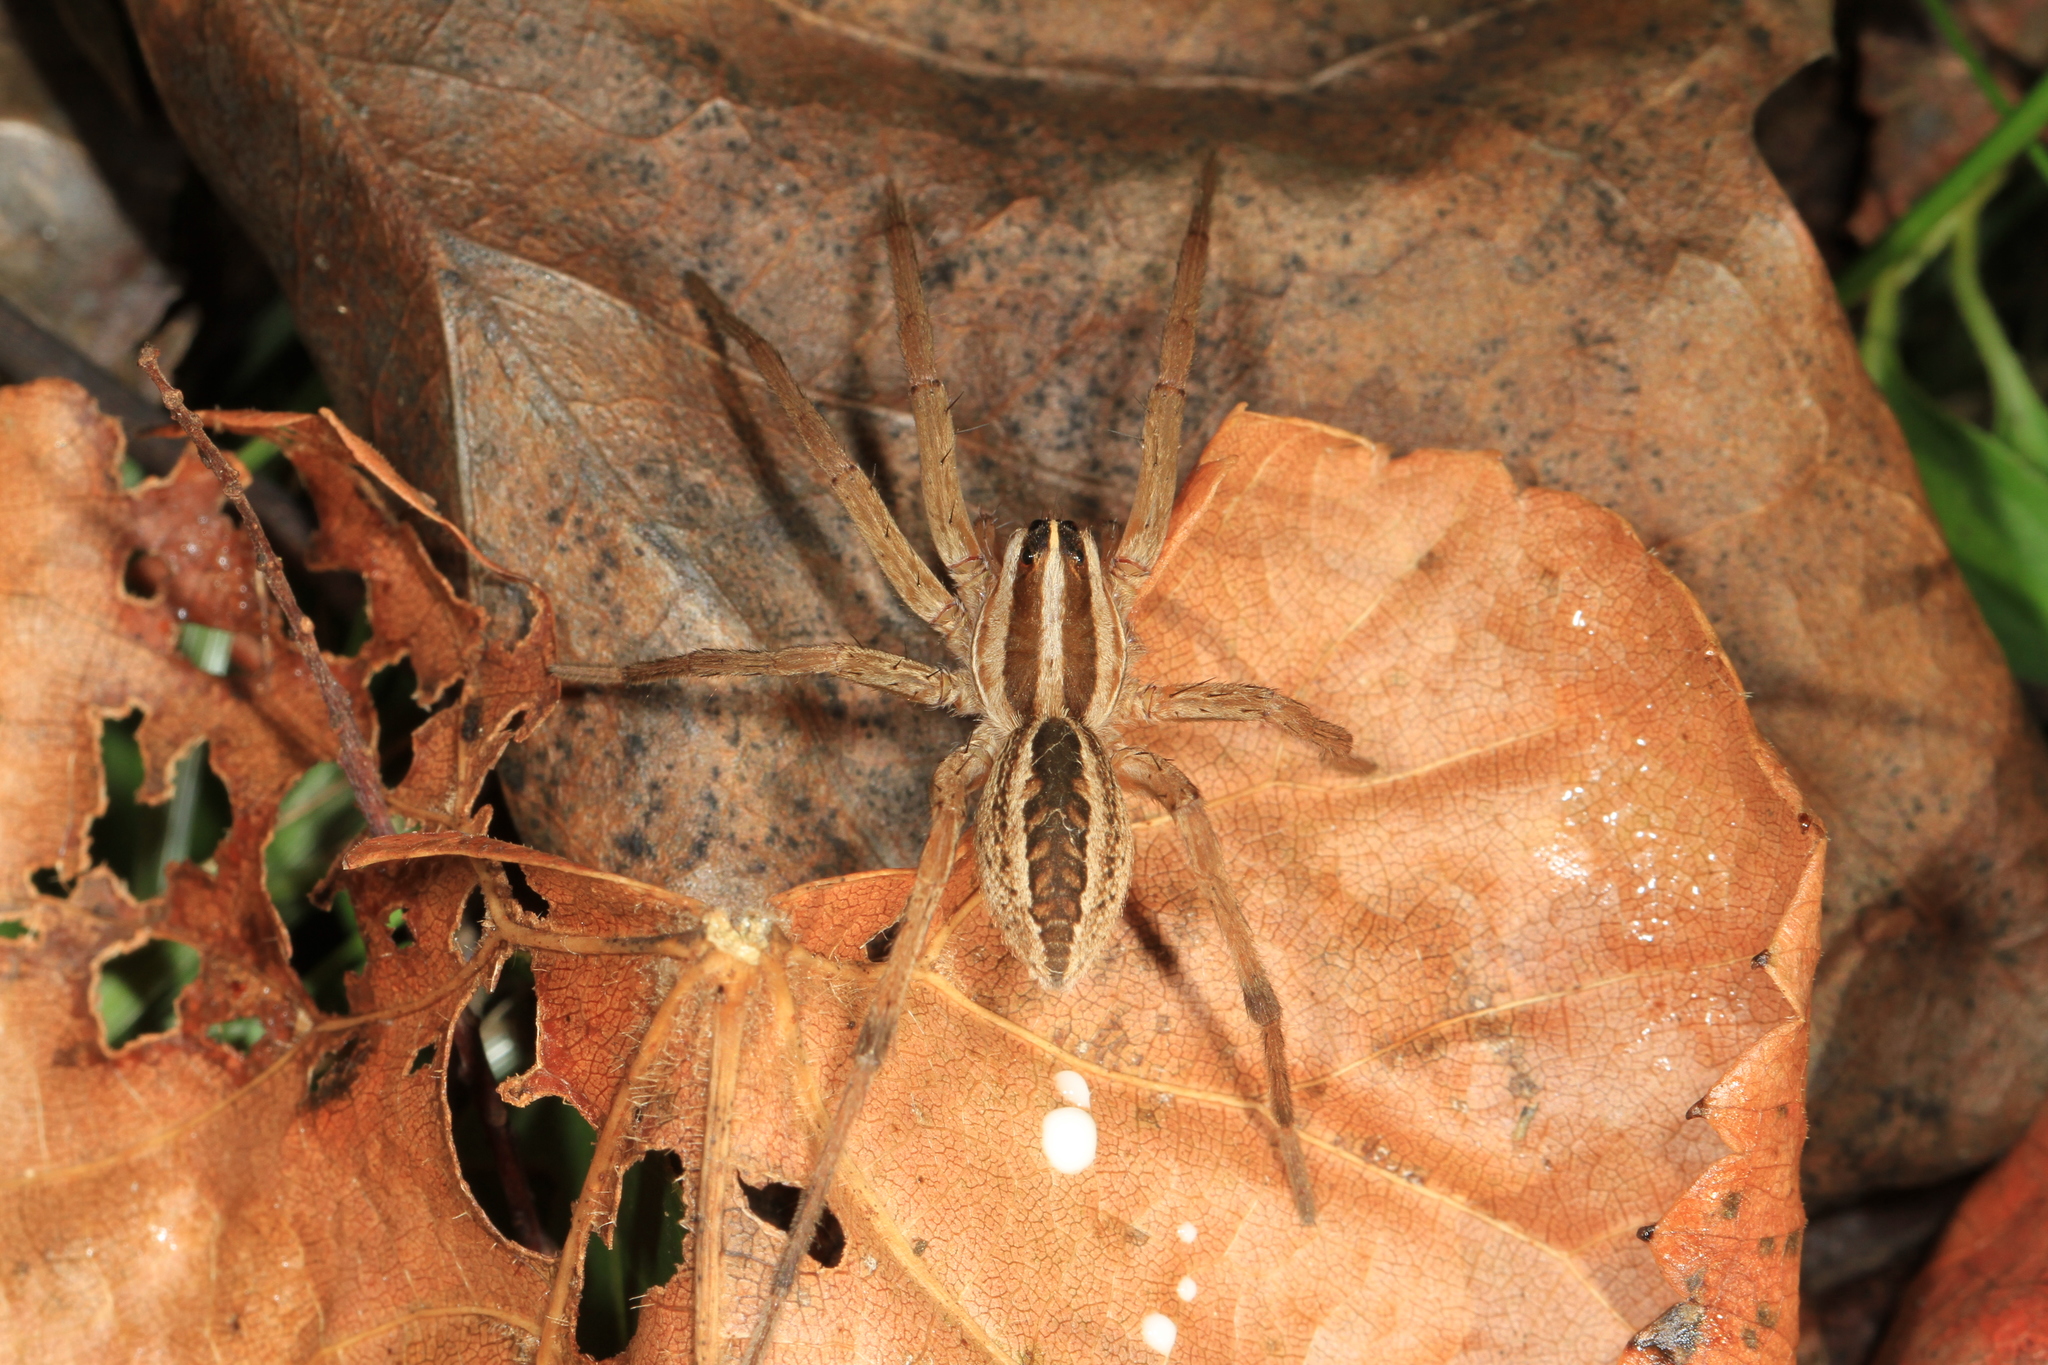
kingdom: Animalia
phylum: Arthropoda
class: Arachnida
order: Araneae
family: Lycosidae
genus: Rabidosa
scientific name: Rabidosa rabida
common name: Rabid wolf spider
